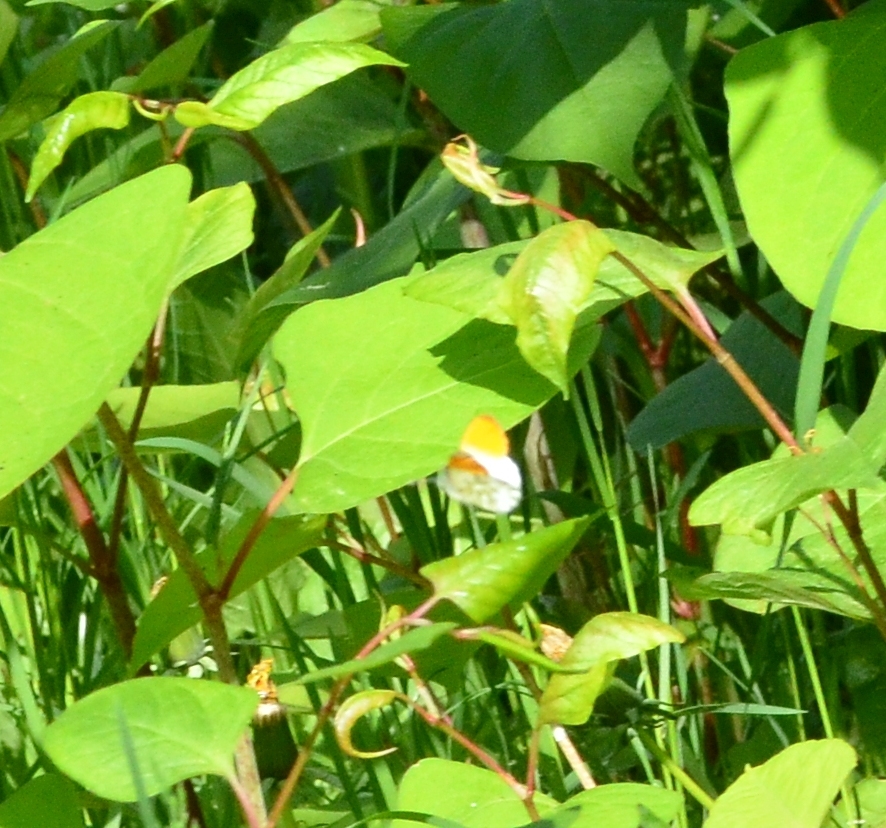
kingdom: Animalia
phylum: Arthropoda
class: Insecta
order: Lepidoptera
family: Pieridae
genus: Anthocharis
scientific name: Anthocharis cardamines
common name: Orange-tip
